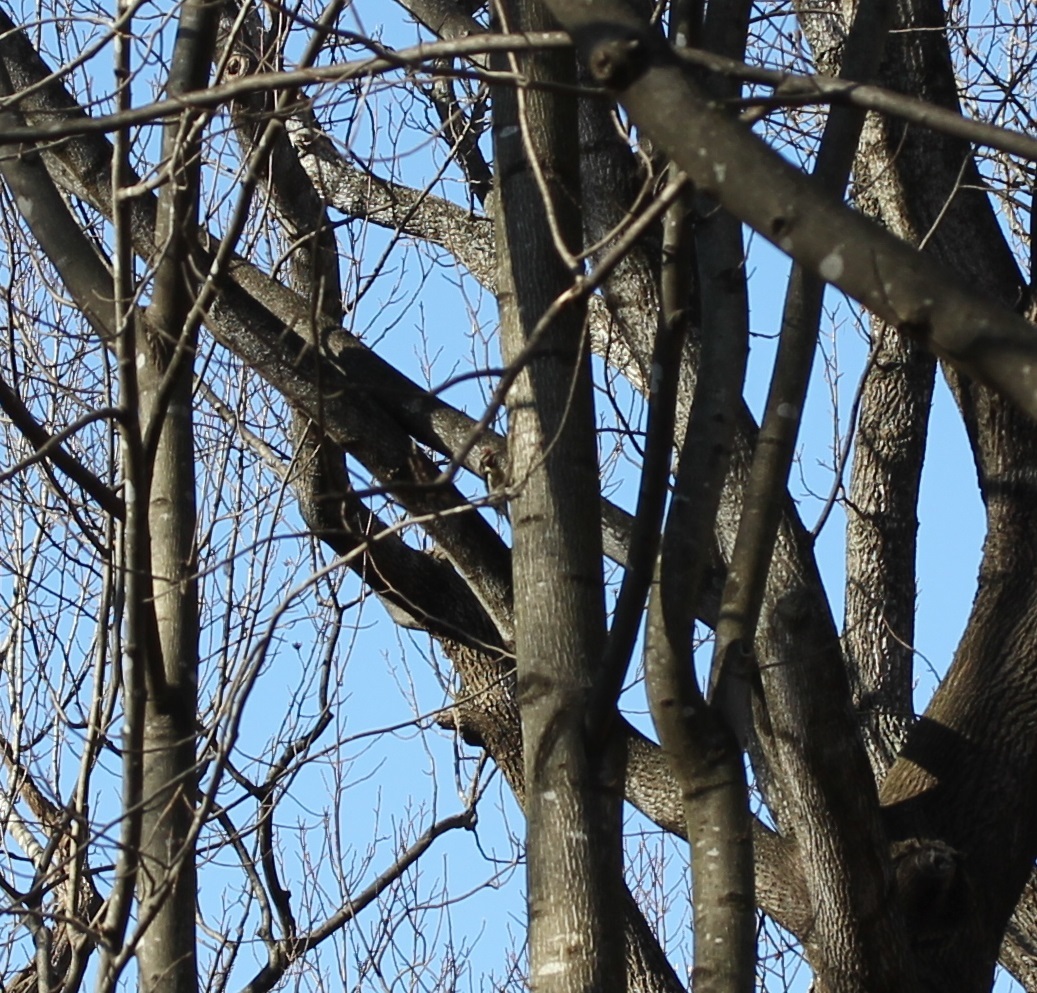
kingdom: Animalia
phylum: Chordata
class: Aves
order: Piciformes
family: Picidae
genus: Sphyrapicus
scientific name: Sphyrapicus varius
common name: Yellow-bellied sapsucker
